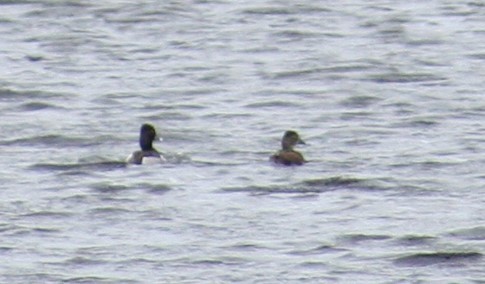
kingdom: Animalia
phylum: Chordata
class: Aves
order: Anseriformes
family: Anatidae
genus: Aythya
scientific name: Aythya collaris
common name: Ring-necked duck
